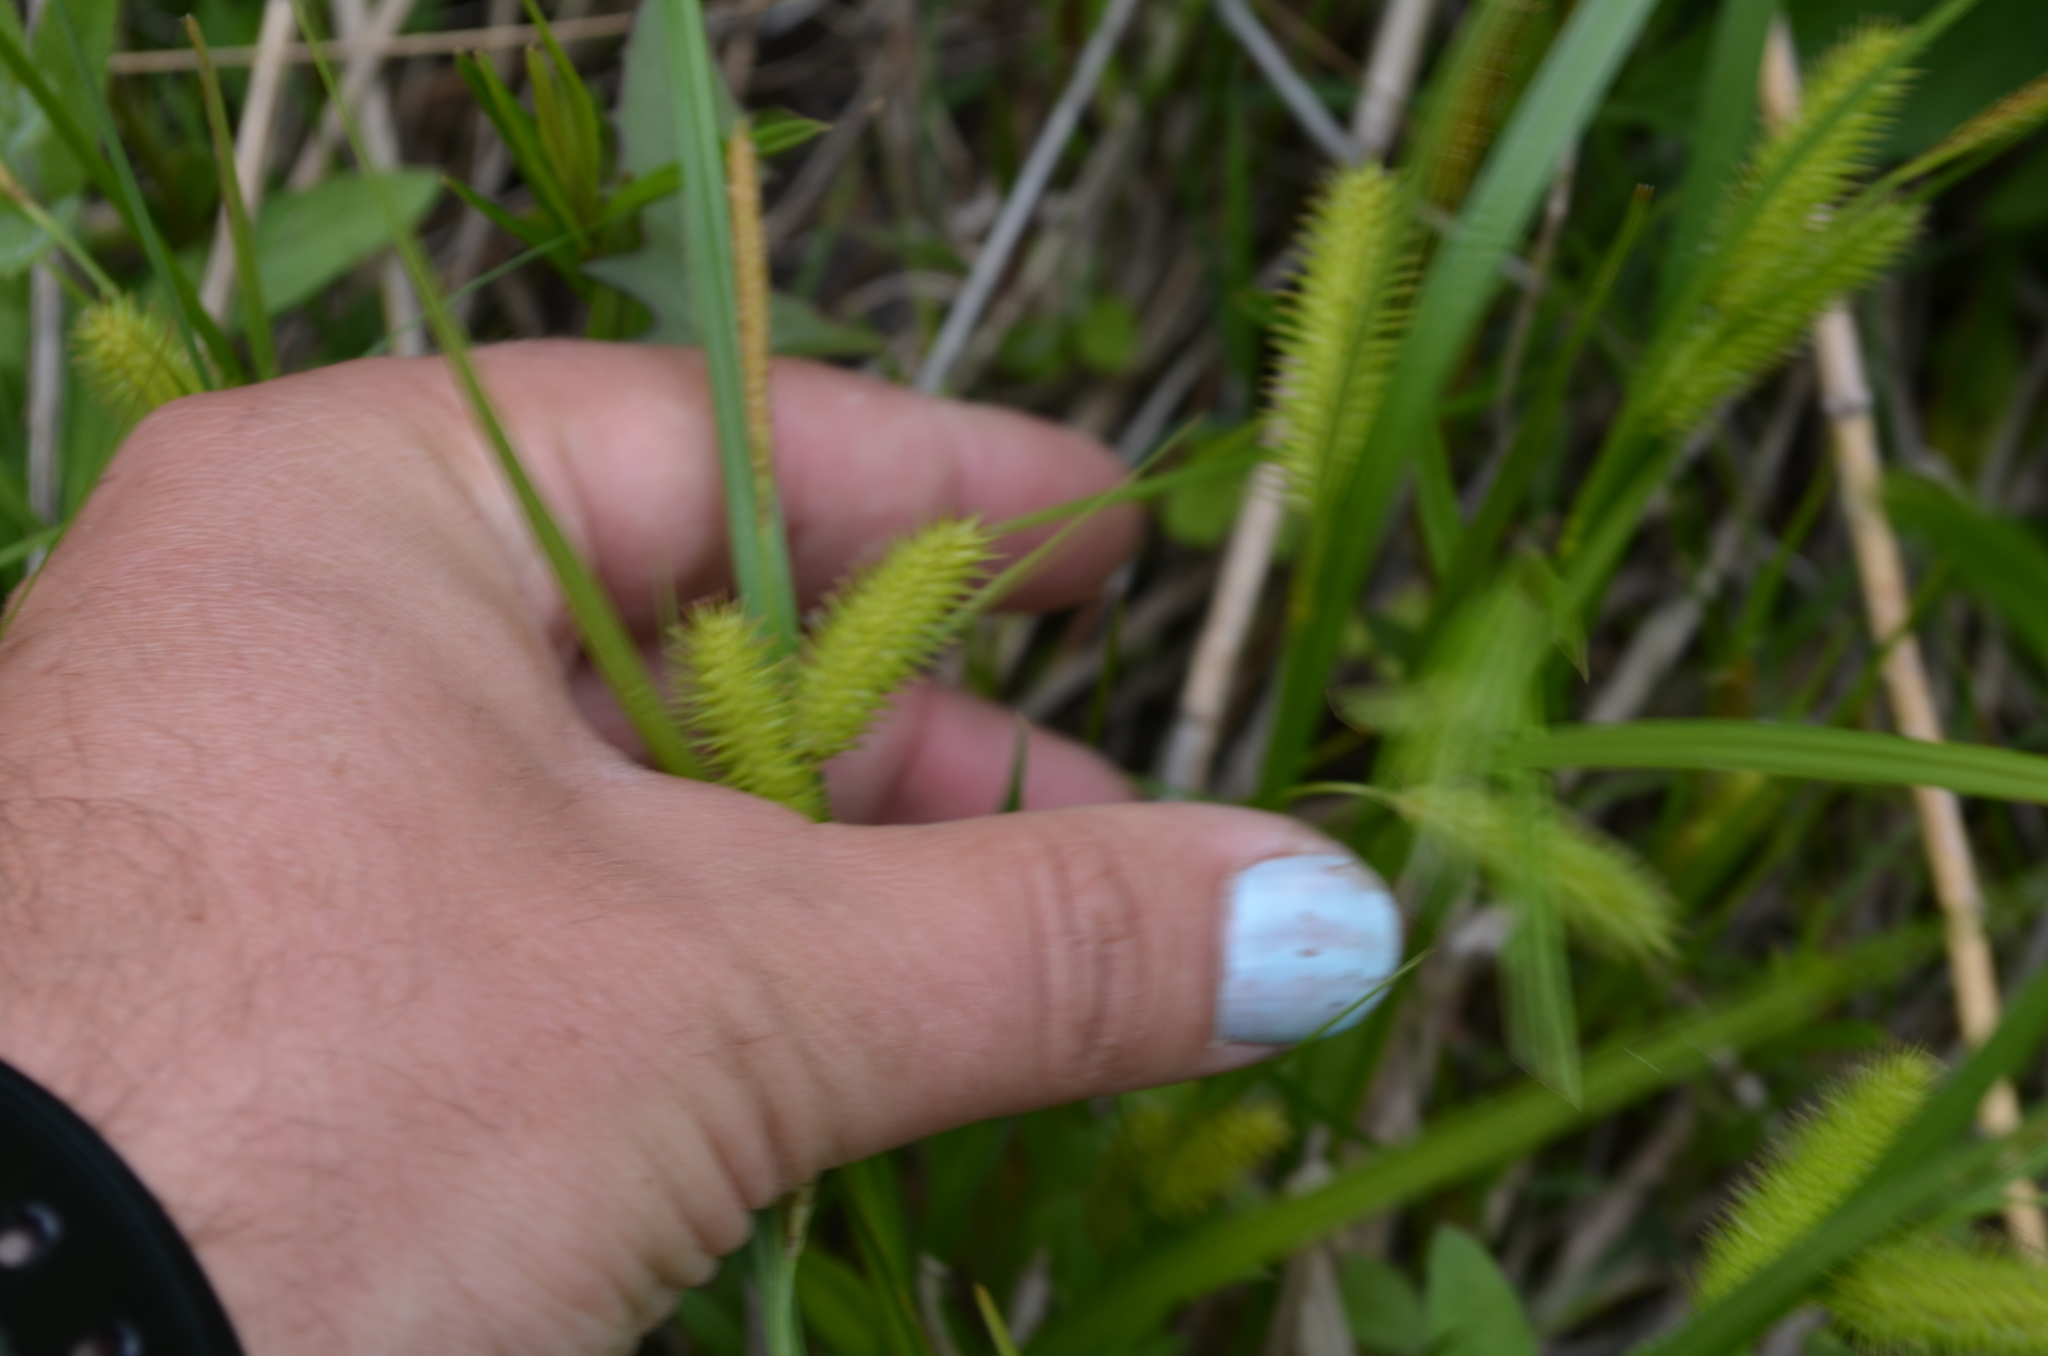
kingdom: Plantae
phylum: Tracheophyta
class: Liliopsida
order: Poales
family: Cyperaceae
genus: Carex
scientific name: Carex hystericina
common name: Bottlebrush sedge
